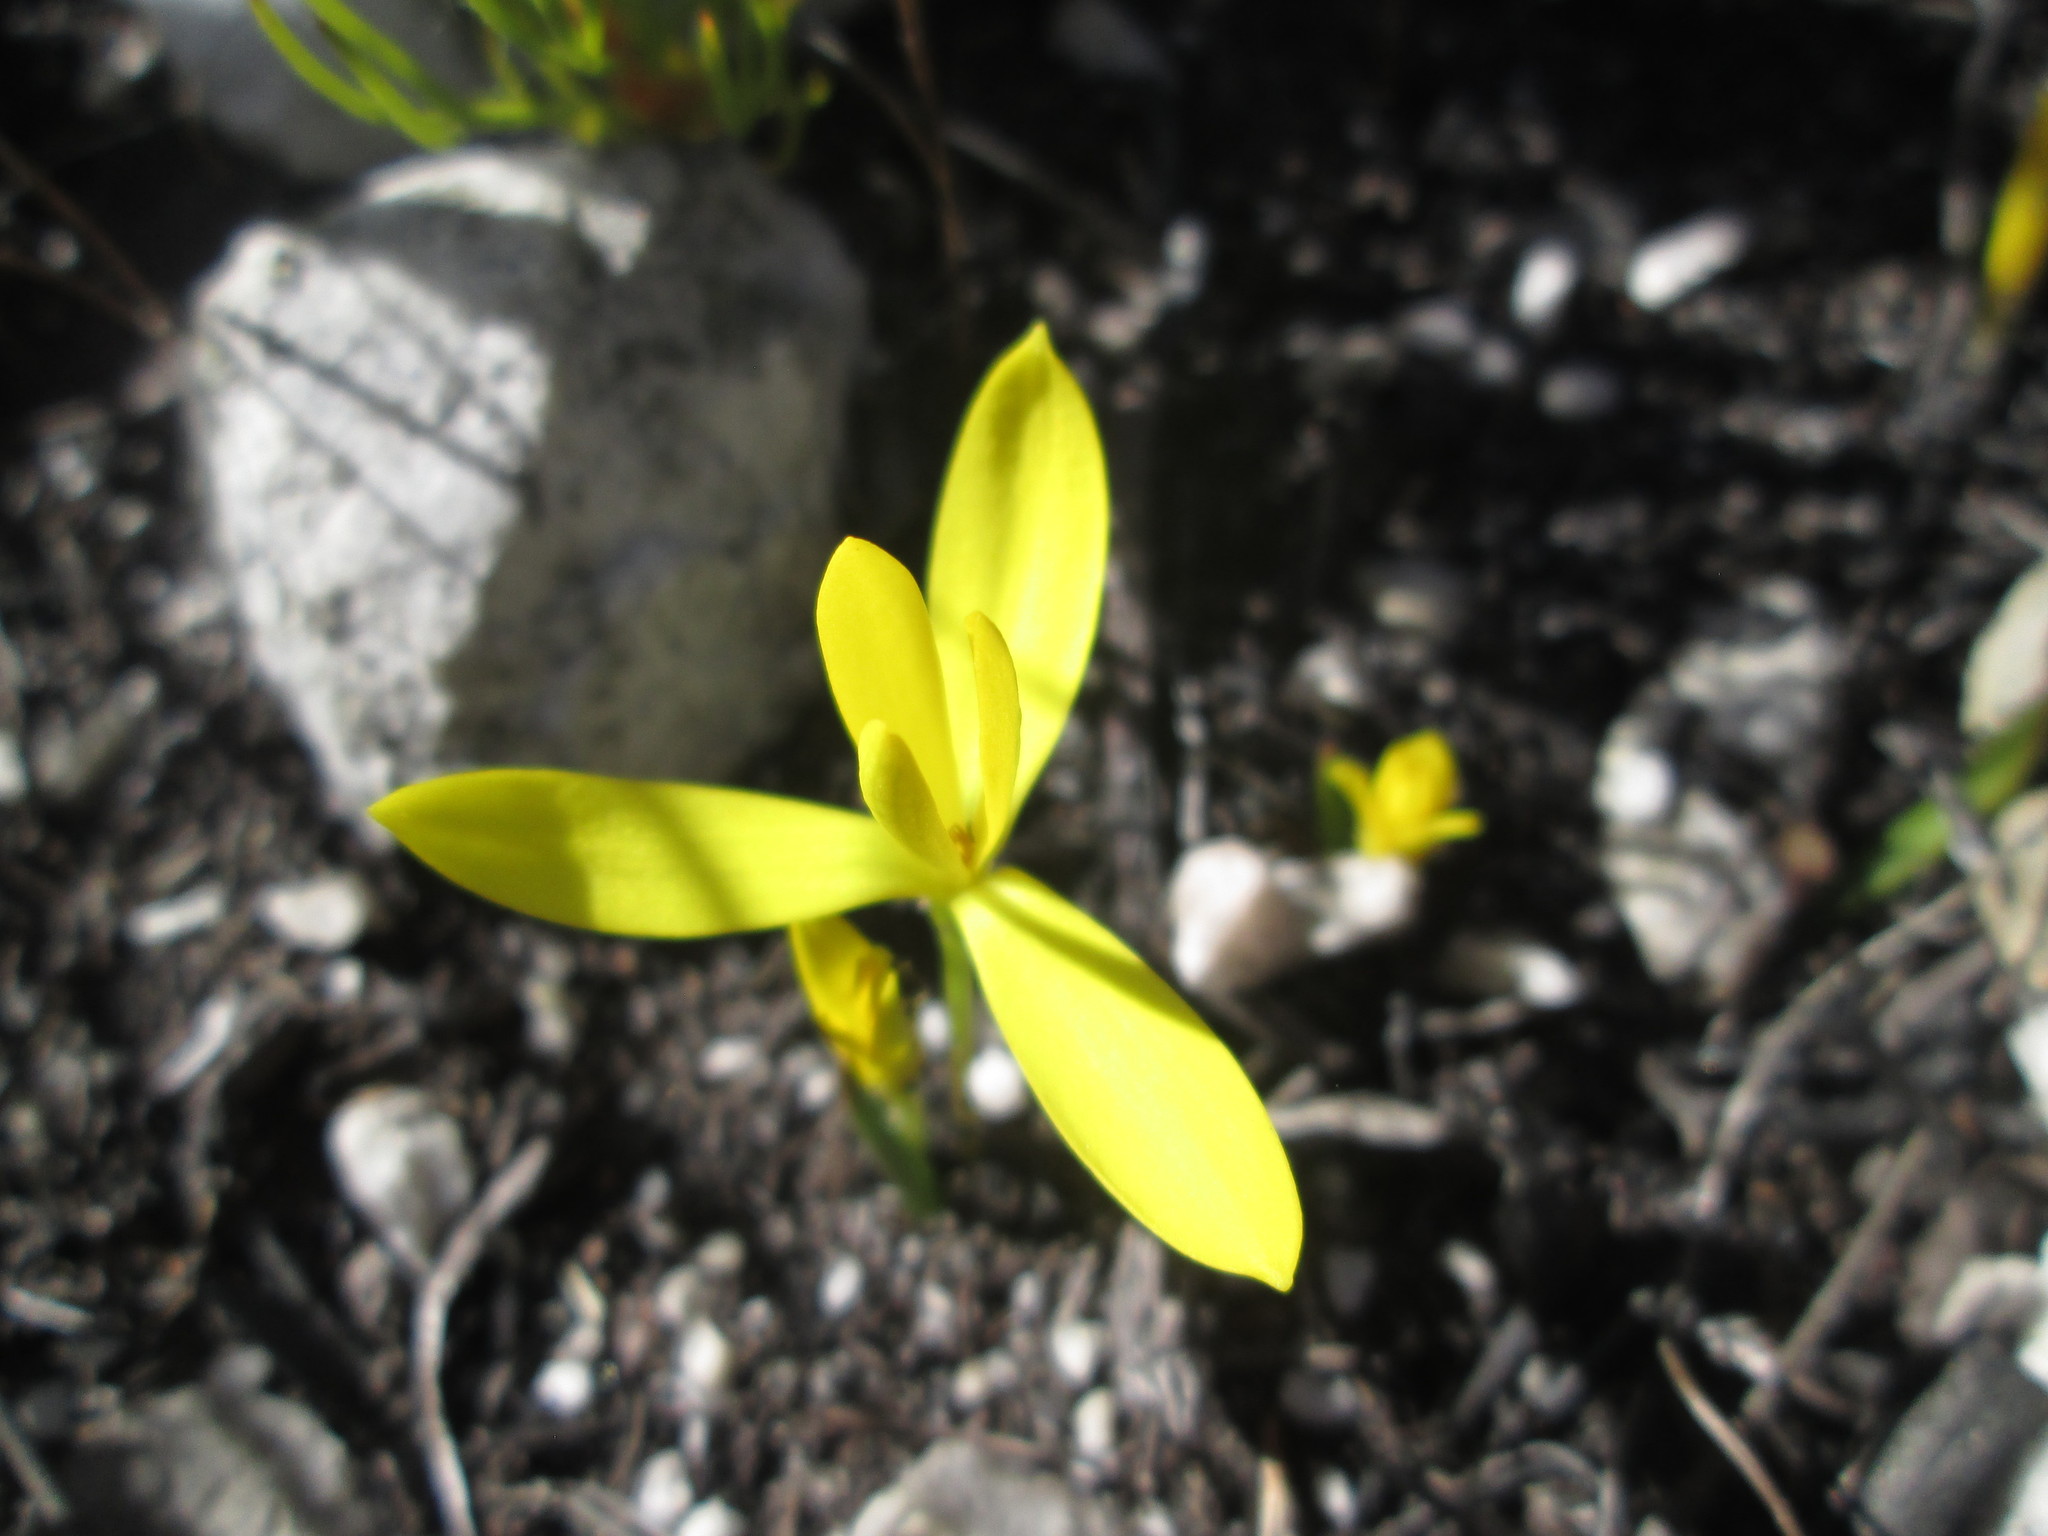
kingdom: Plantae
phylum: Tracheophyta
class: Liliopsida
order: Asparagales
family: Hypoxidaceae
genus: Pauridia
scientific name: Pauridia monophylla
